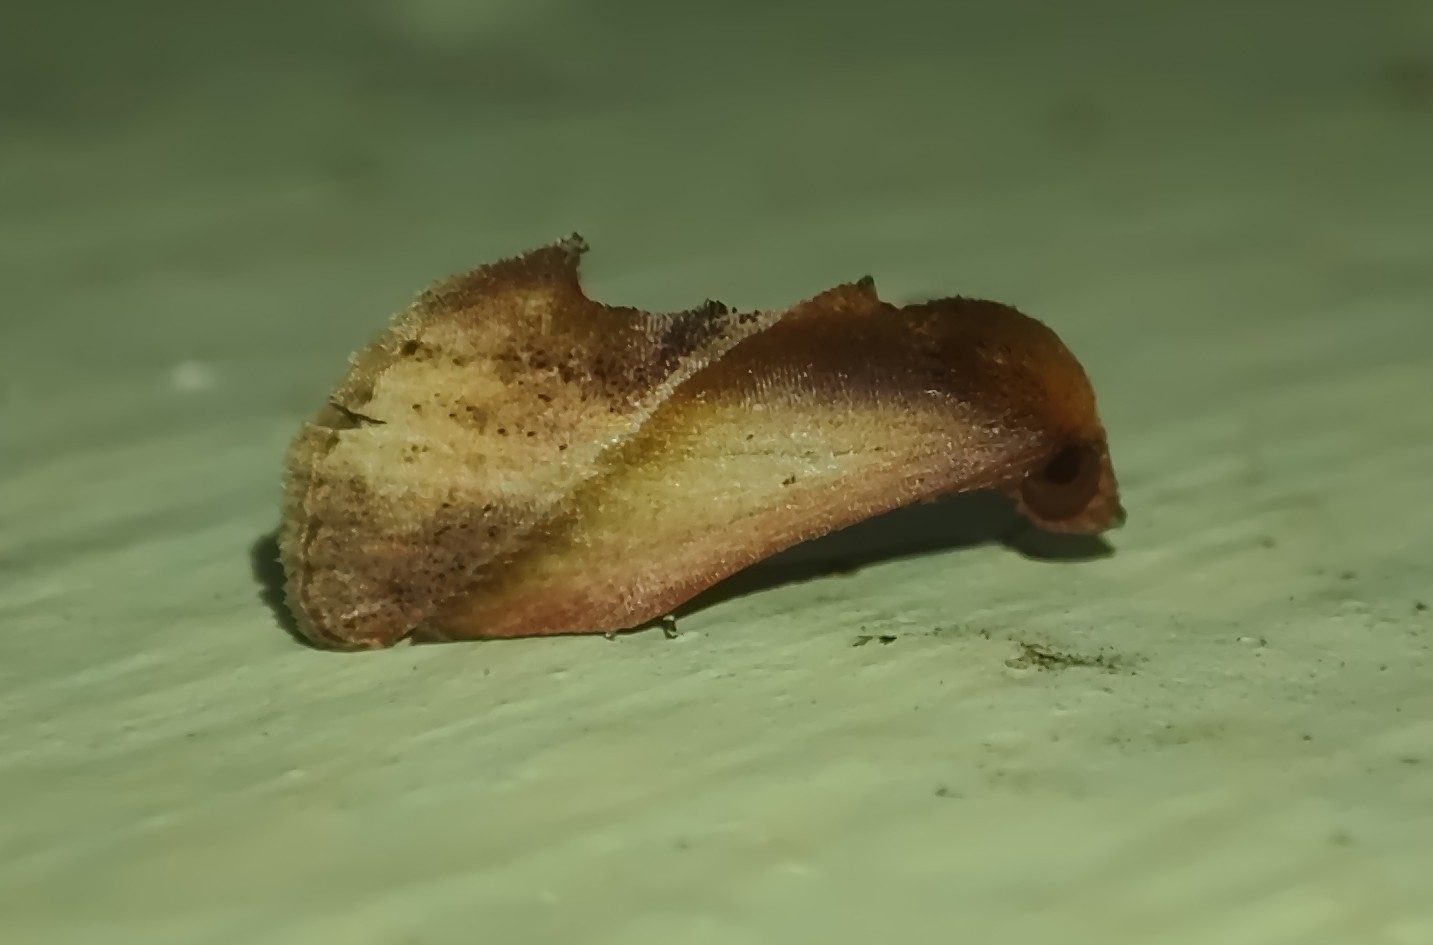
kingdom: Animalia
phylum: Arthropoda
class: Insecta
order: Lepidoptera
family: Erebidae
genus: Arsacia
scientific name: Arsacia rectalis
